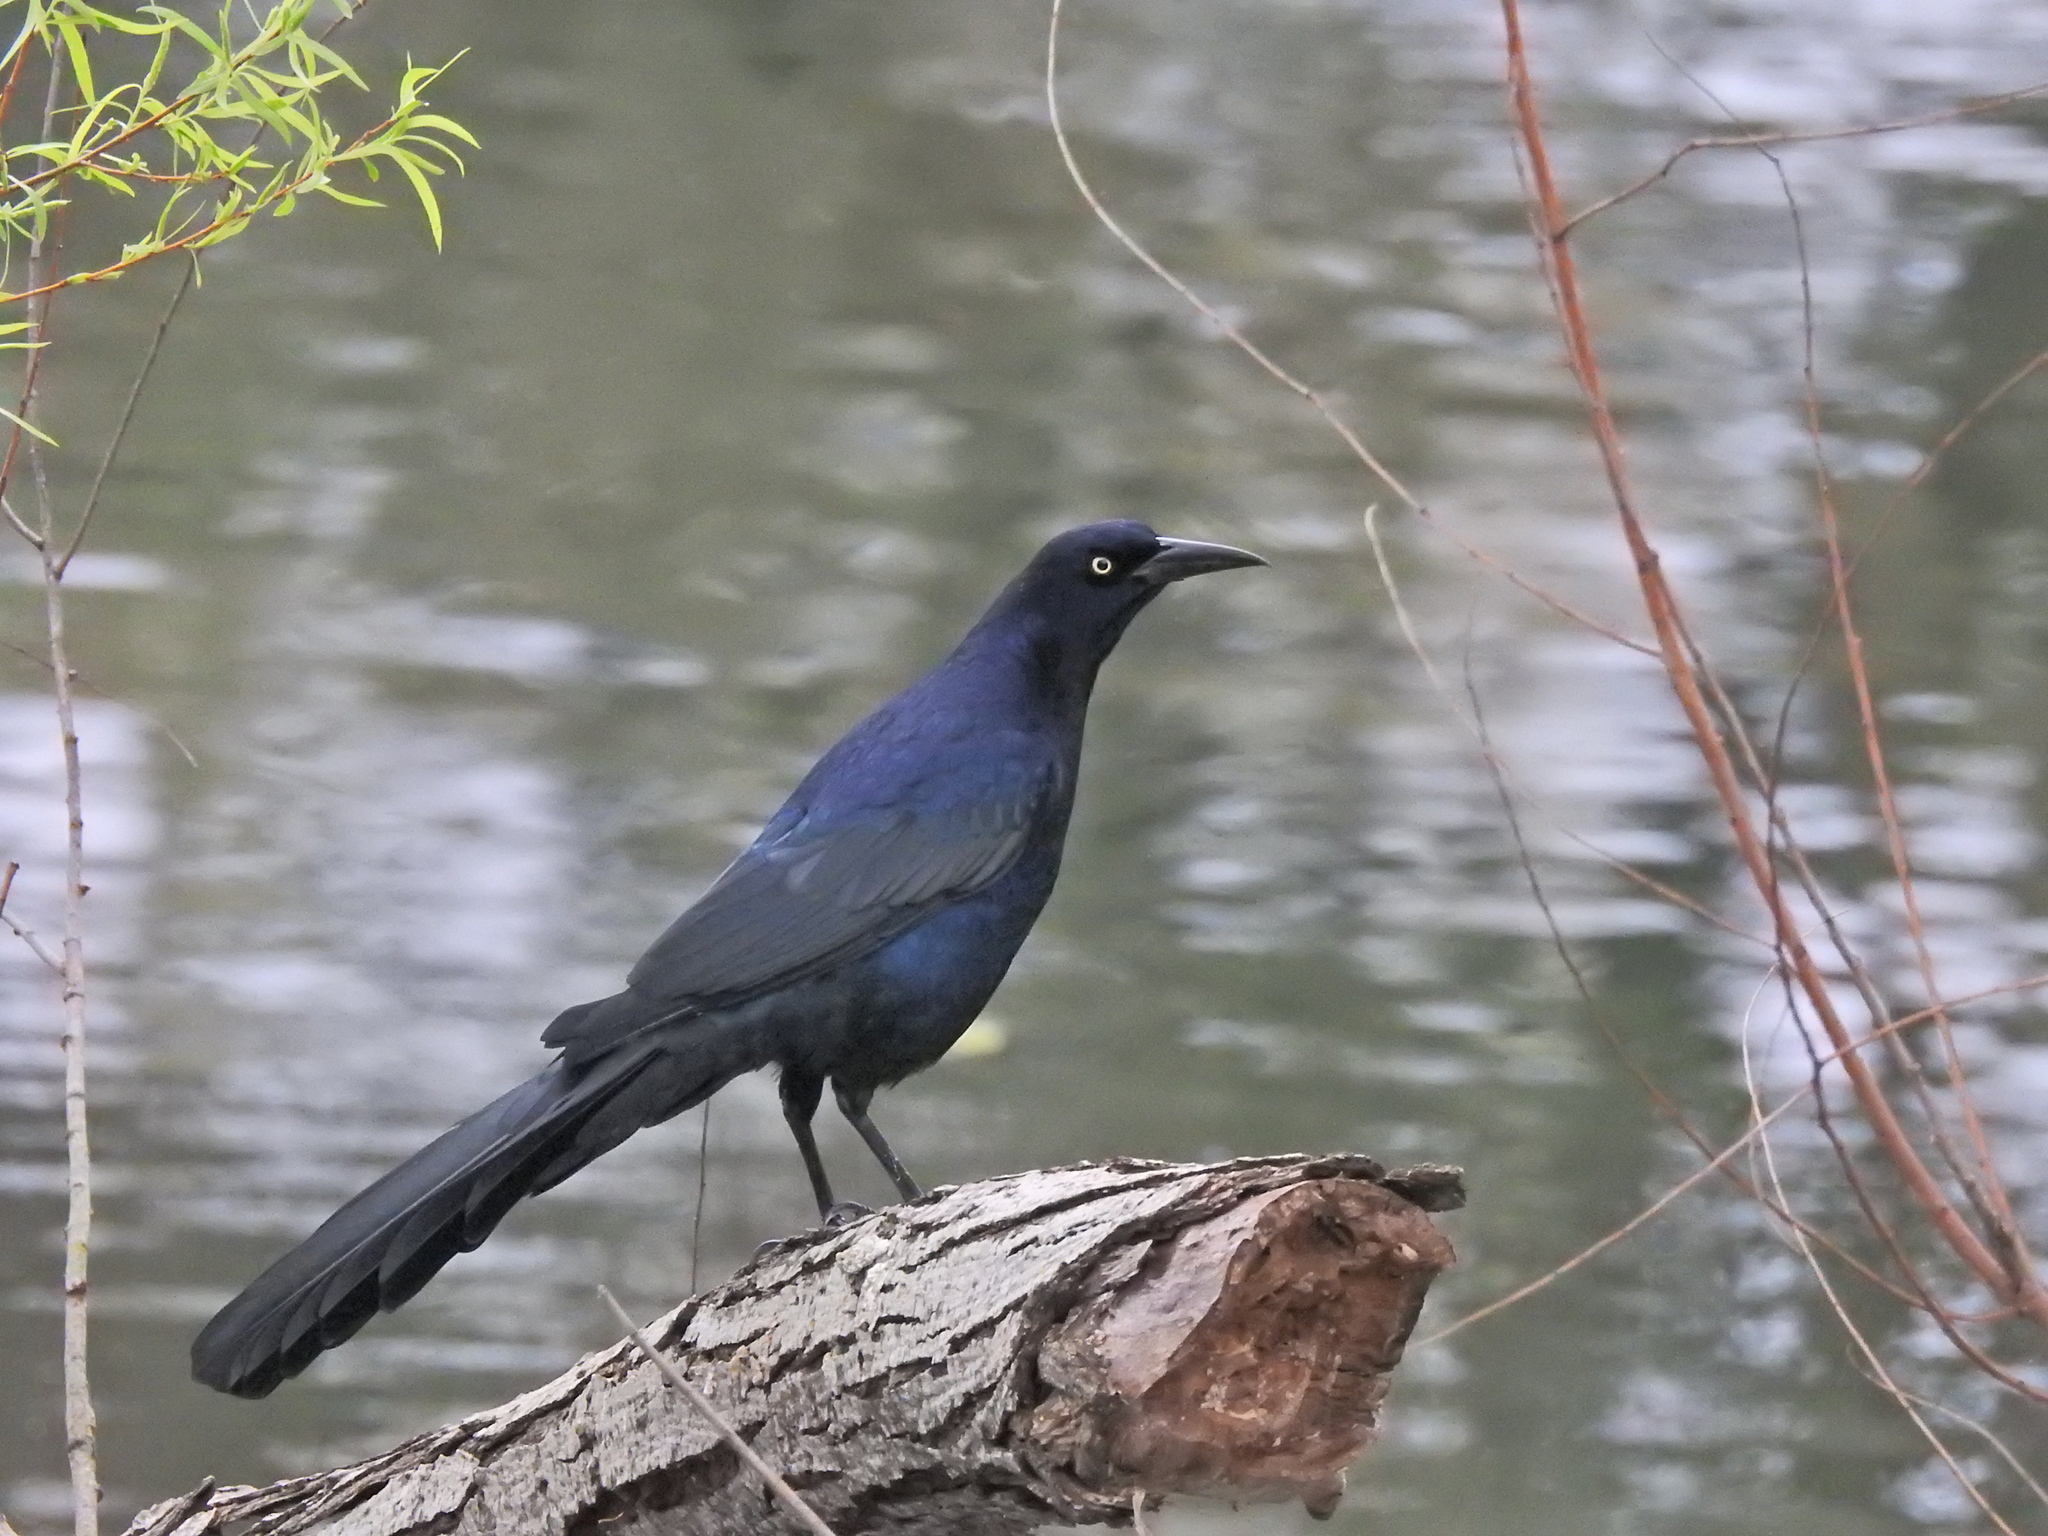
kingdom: Animalia
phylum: Chordata
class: Aves
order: Passeriformes
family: Icteridae
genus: Quiscalus
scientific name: Quiscalus mexicanus
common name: Great-tailed grackle
